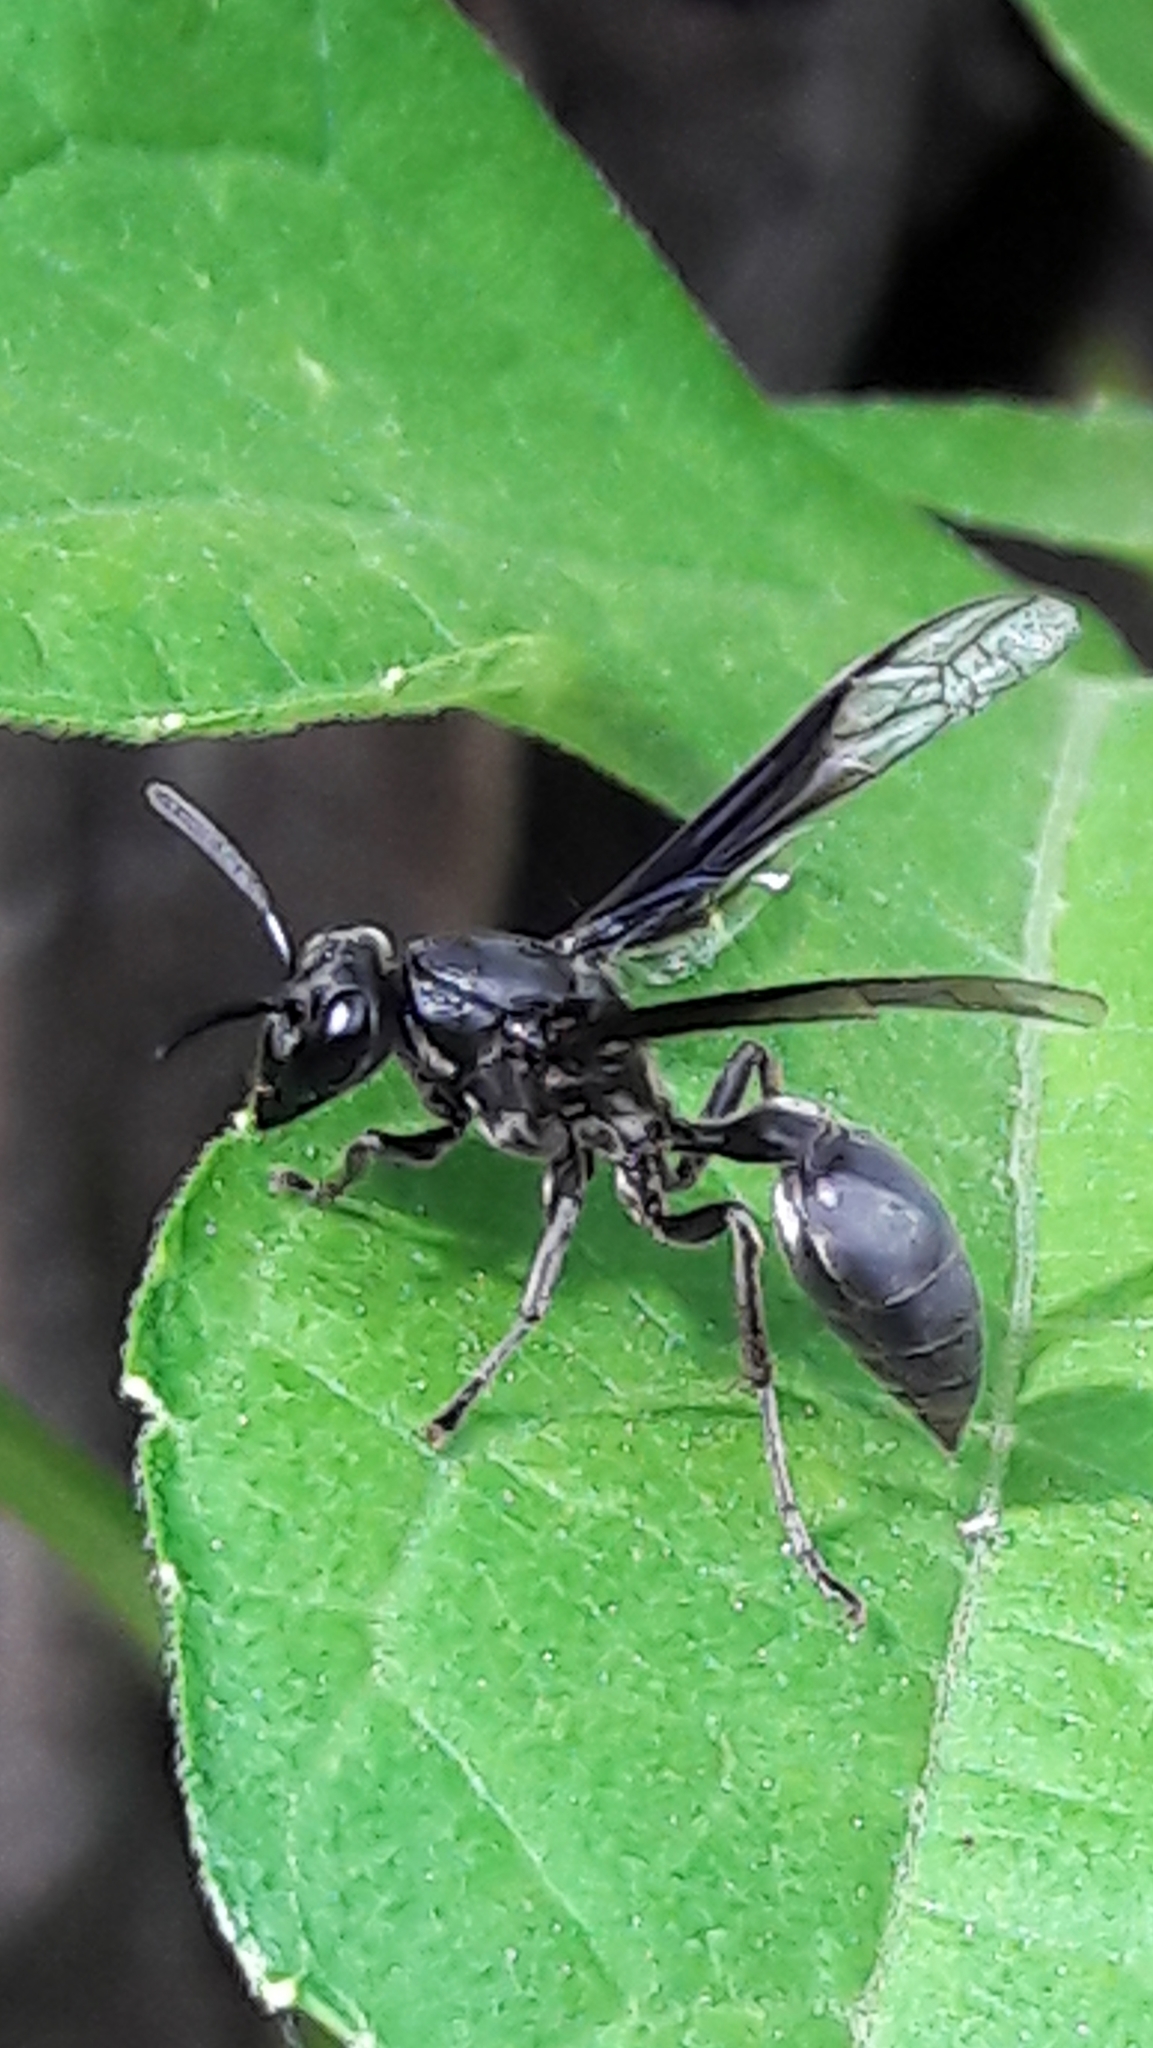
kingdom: Animalia
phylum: Arthropoda
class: Insecta
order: Hymenoptera
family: Eumenidae
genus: Polybia
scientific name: Polybia ignobilis
